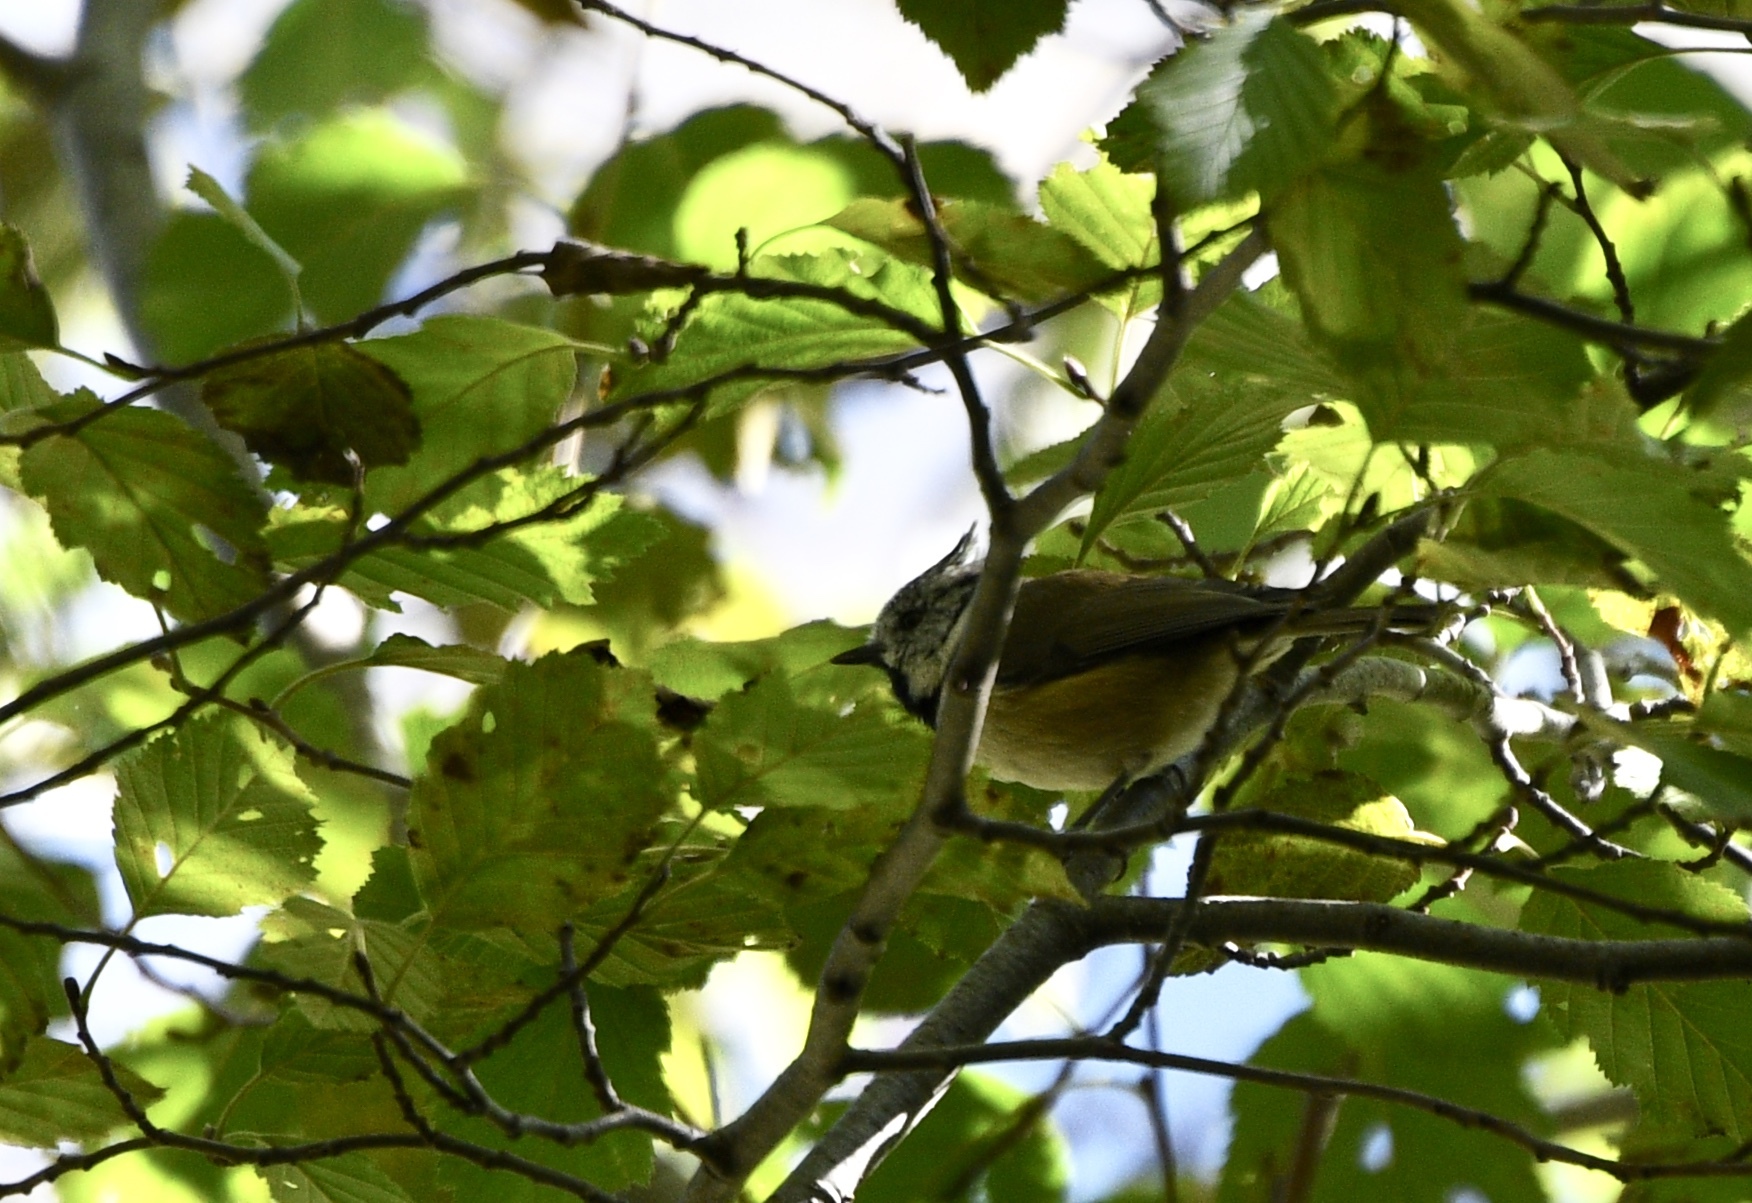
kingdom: Animalia
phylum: Chordata
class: Aves
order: Passeriformes
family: Paridae
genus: Lophophanes
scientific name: Lophophanes cristatus
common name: European crested tit
